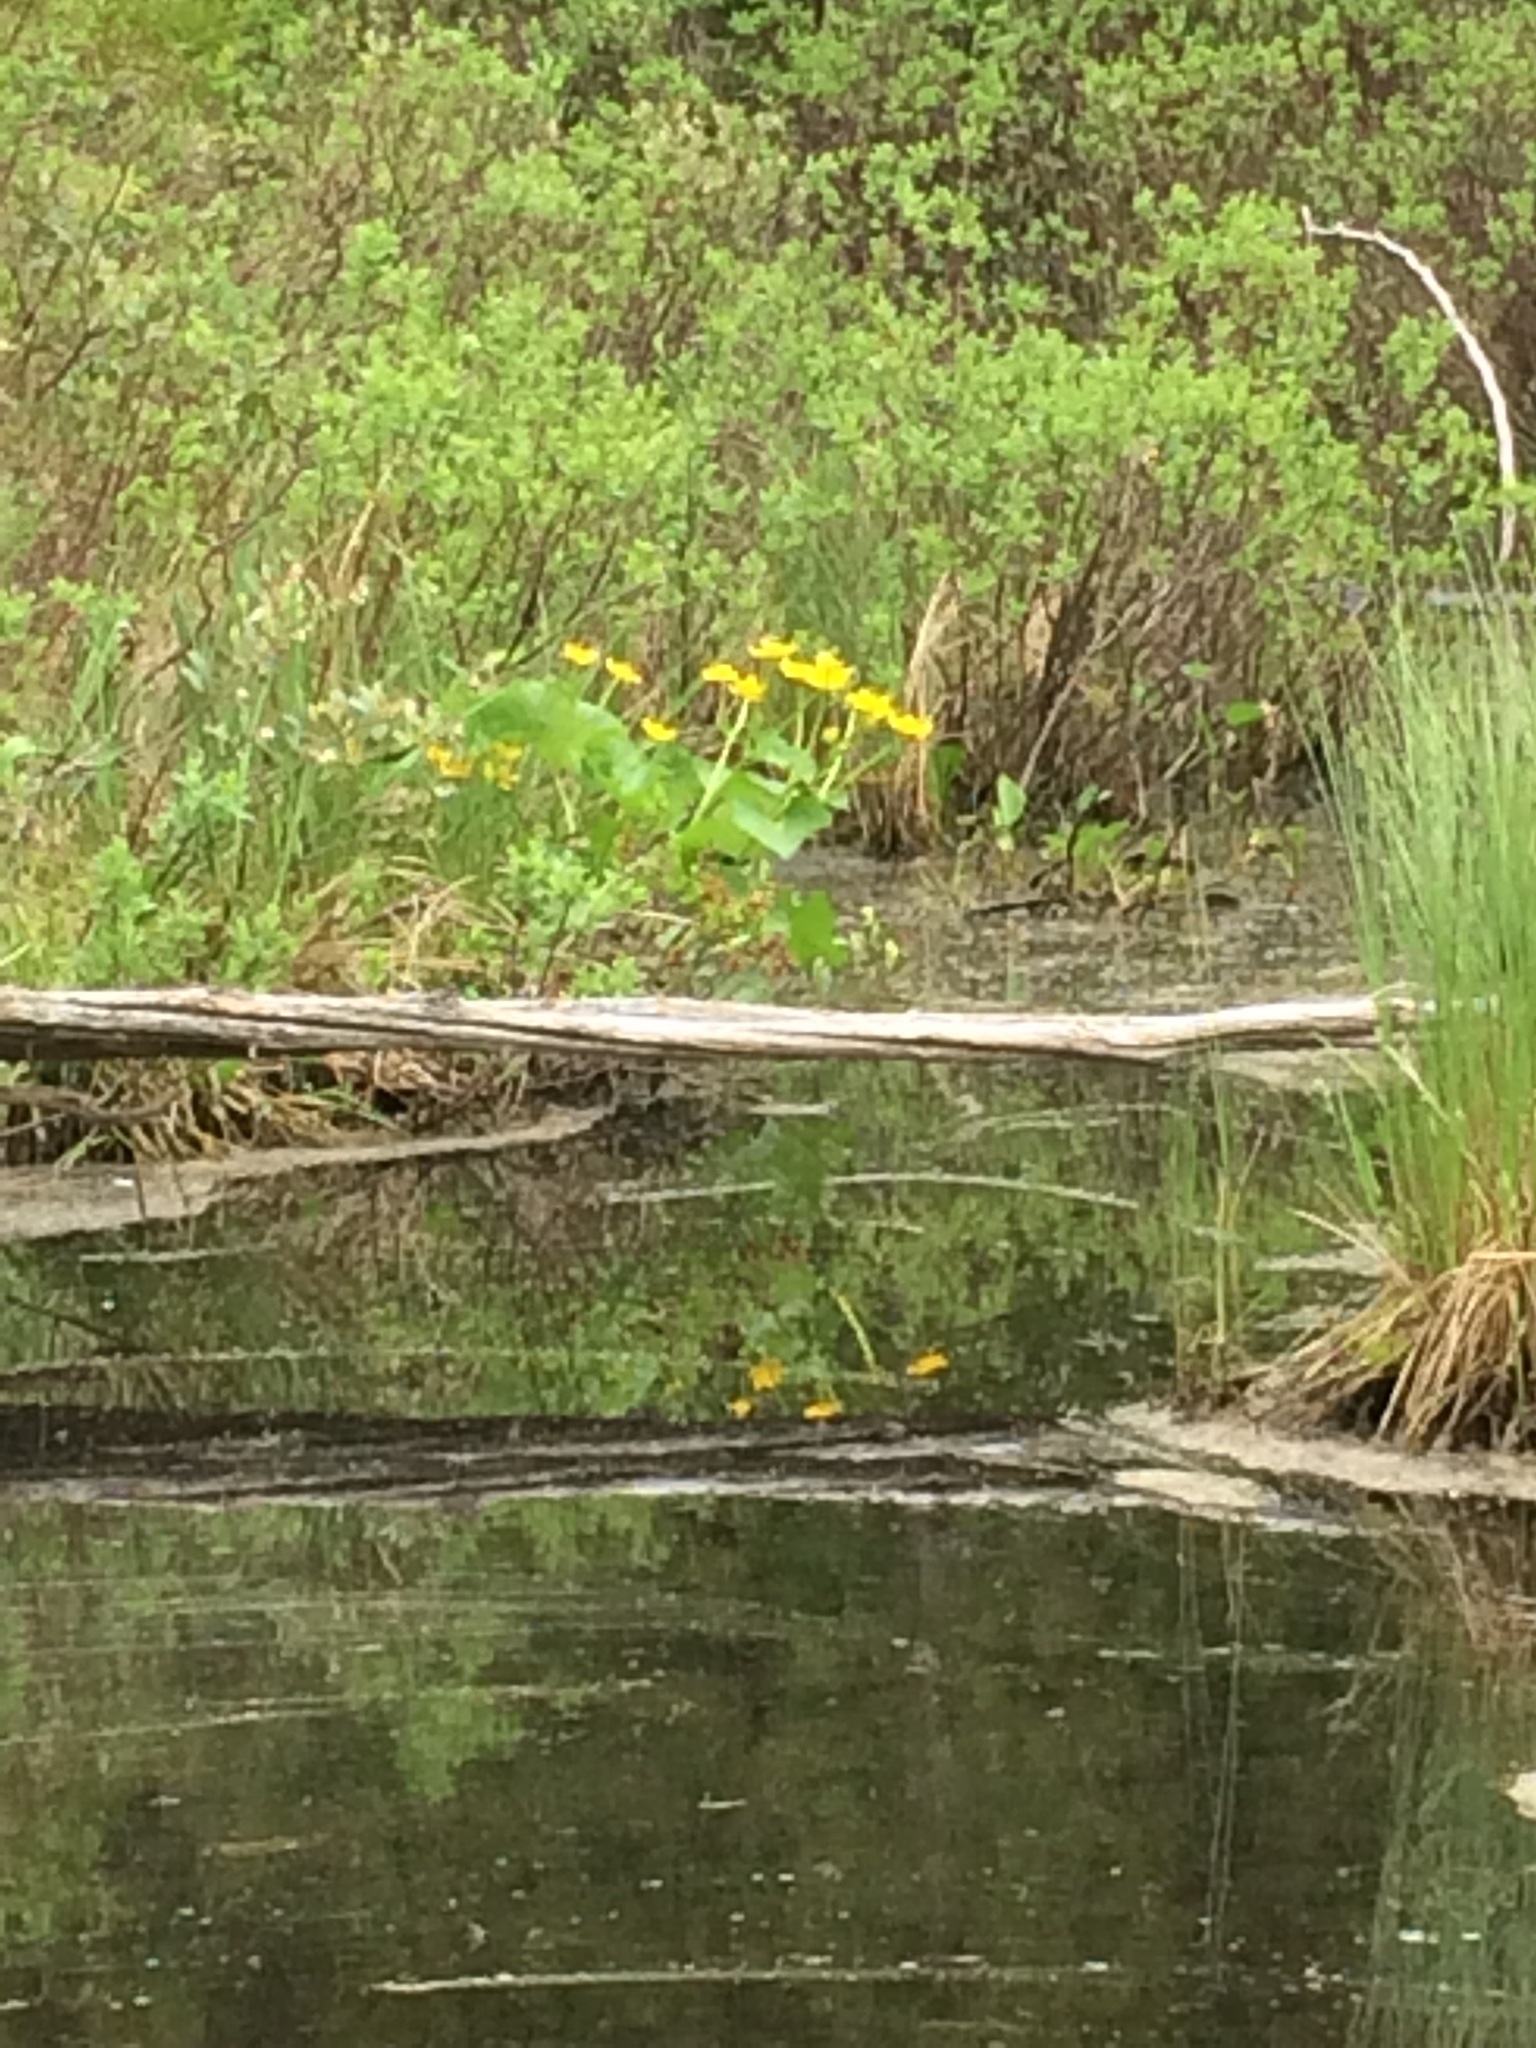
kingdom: Plantae
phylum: Tracheophyta
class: Magnoliopsida
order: Ranunculales
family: Ranunculaceae
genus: Caltha
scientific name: Caltha palustris
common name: Marsh marigold
